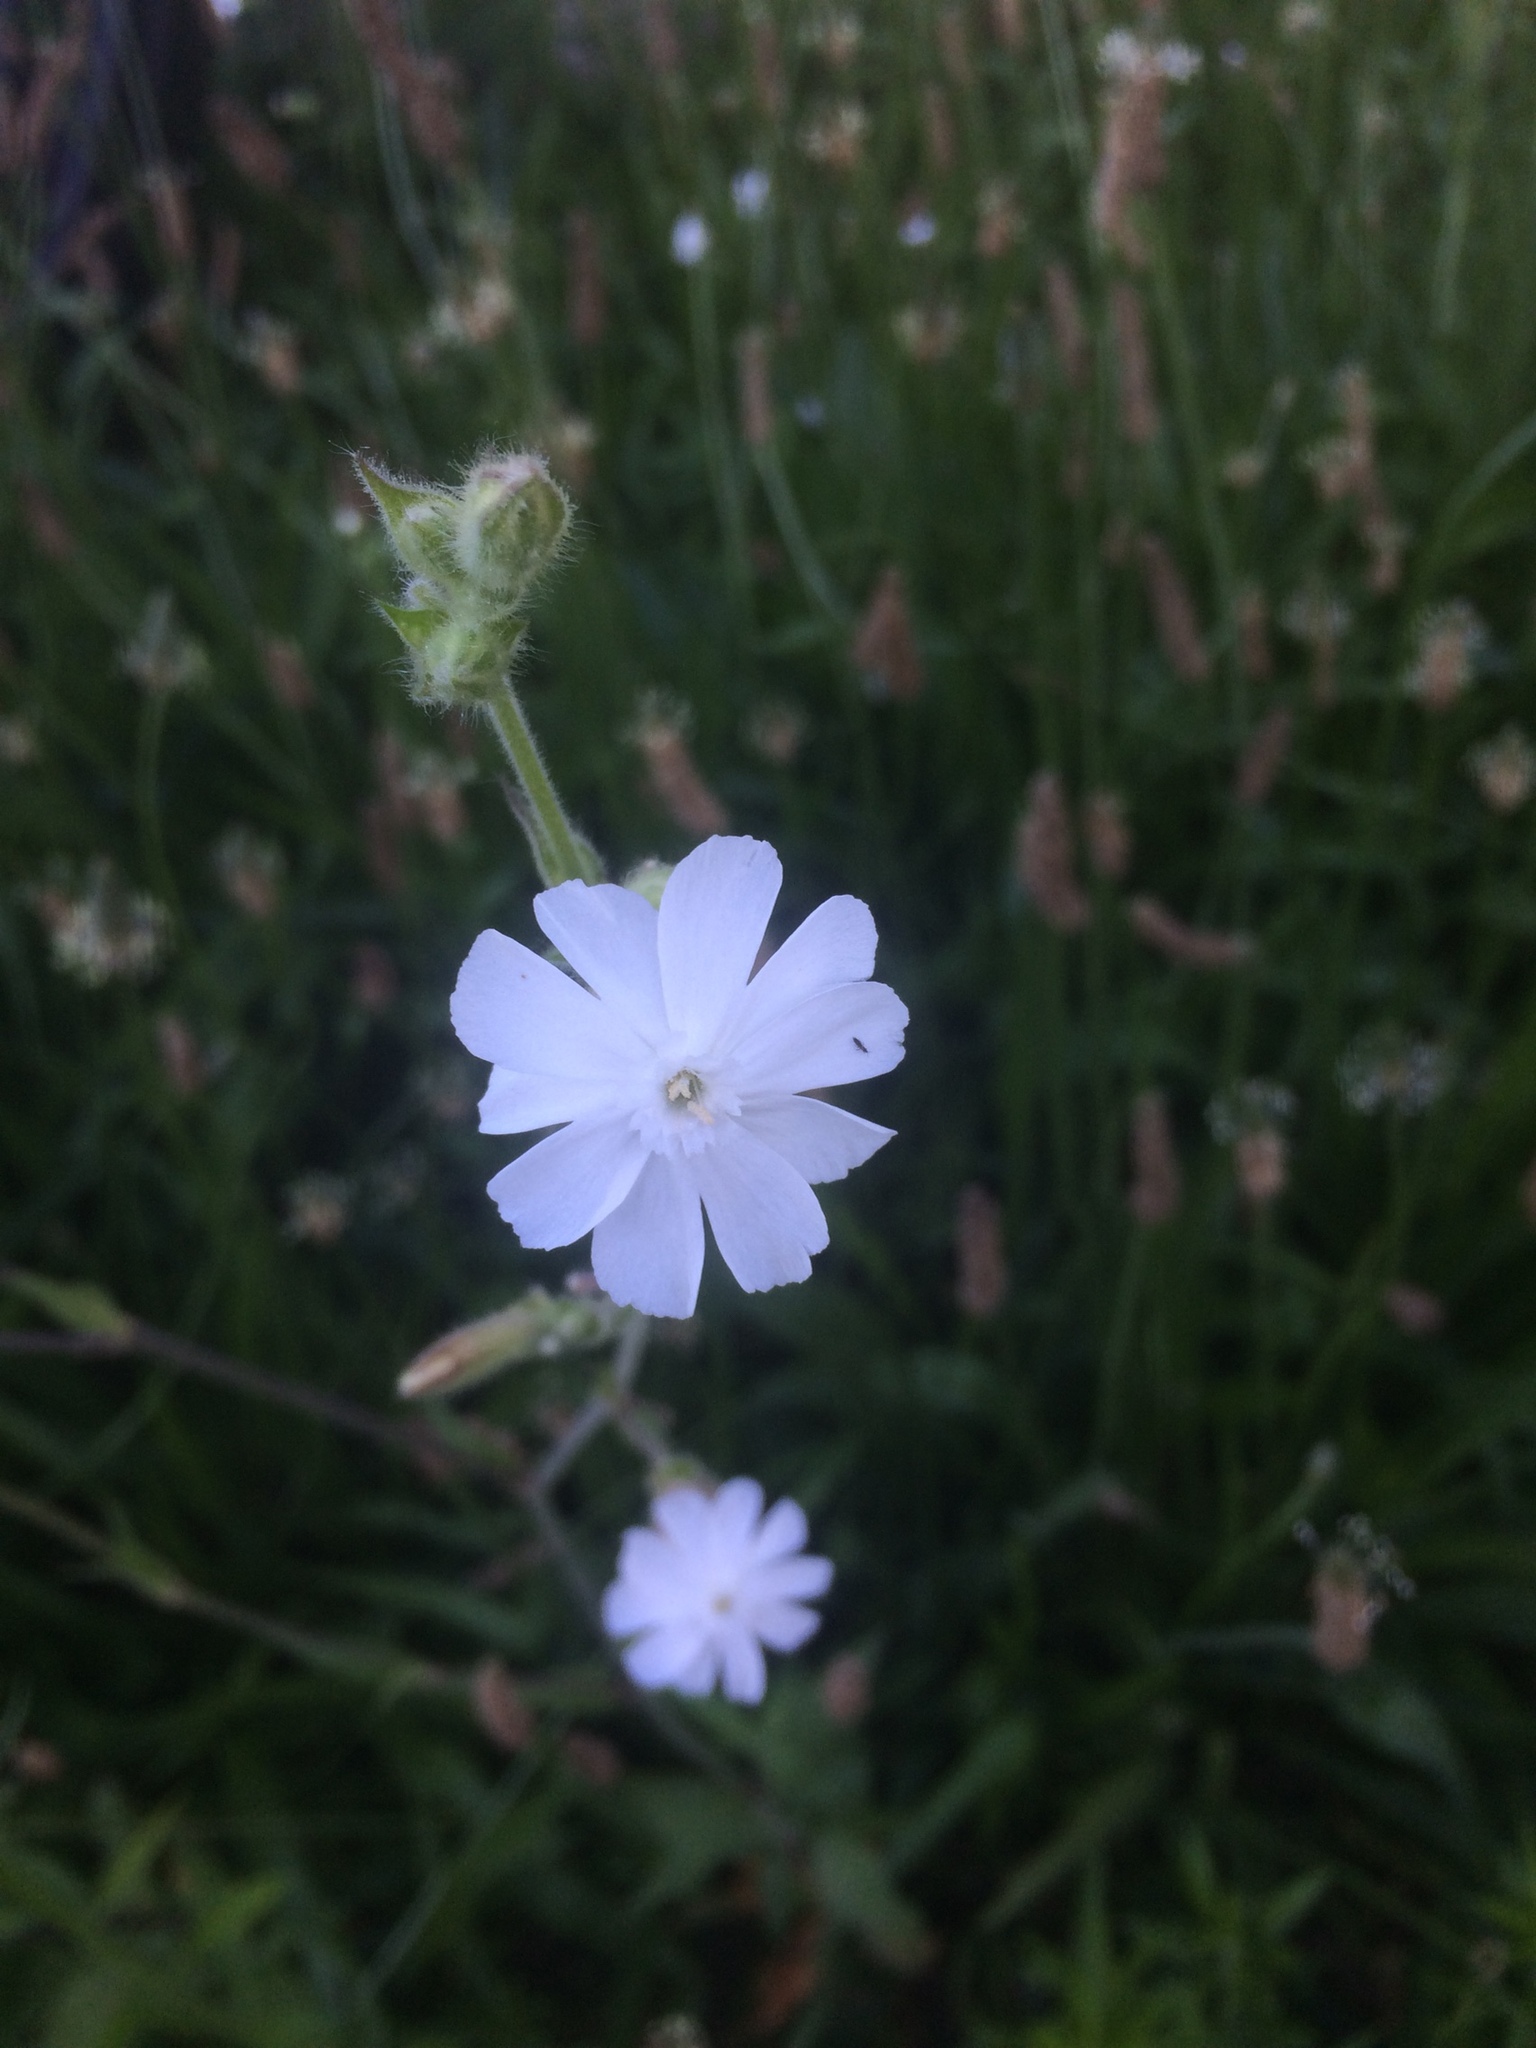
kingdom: Plantae
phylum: Tracheophyta
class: Magnoliopsida
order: Caryophyllales
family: Caryophyllaceae
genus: Silene
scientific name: Silene latifolia
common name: White campion
